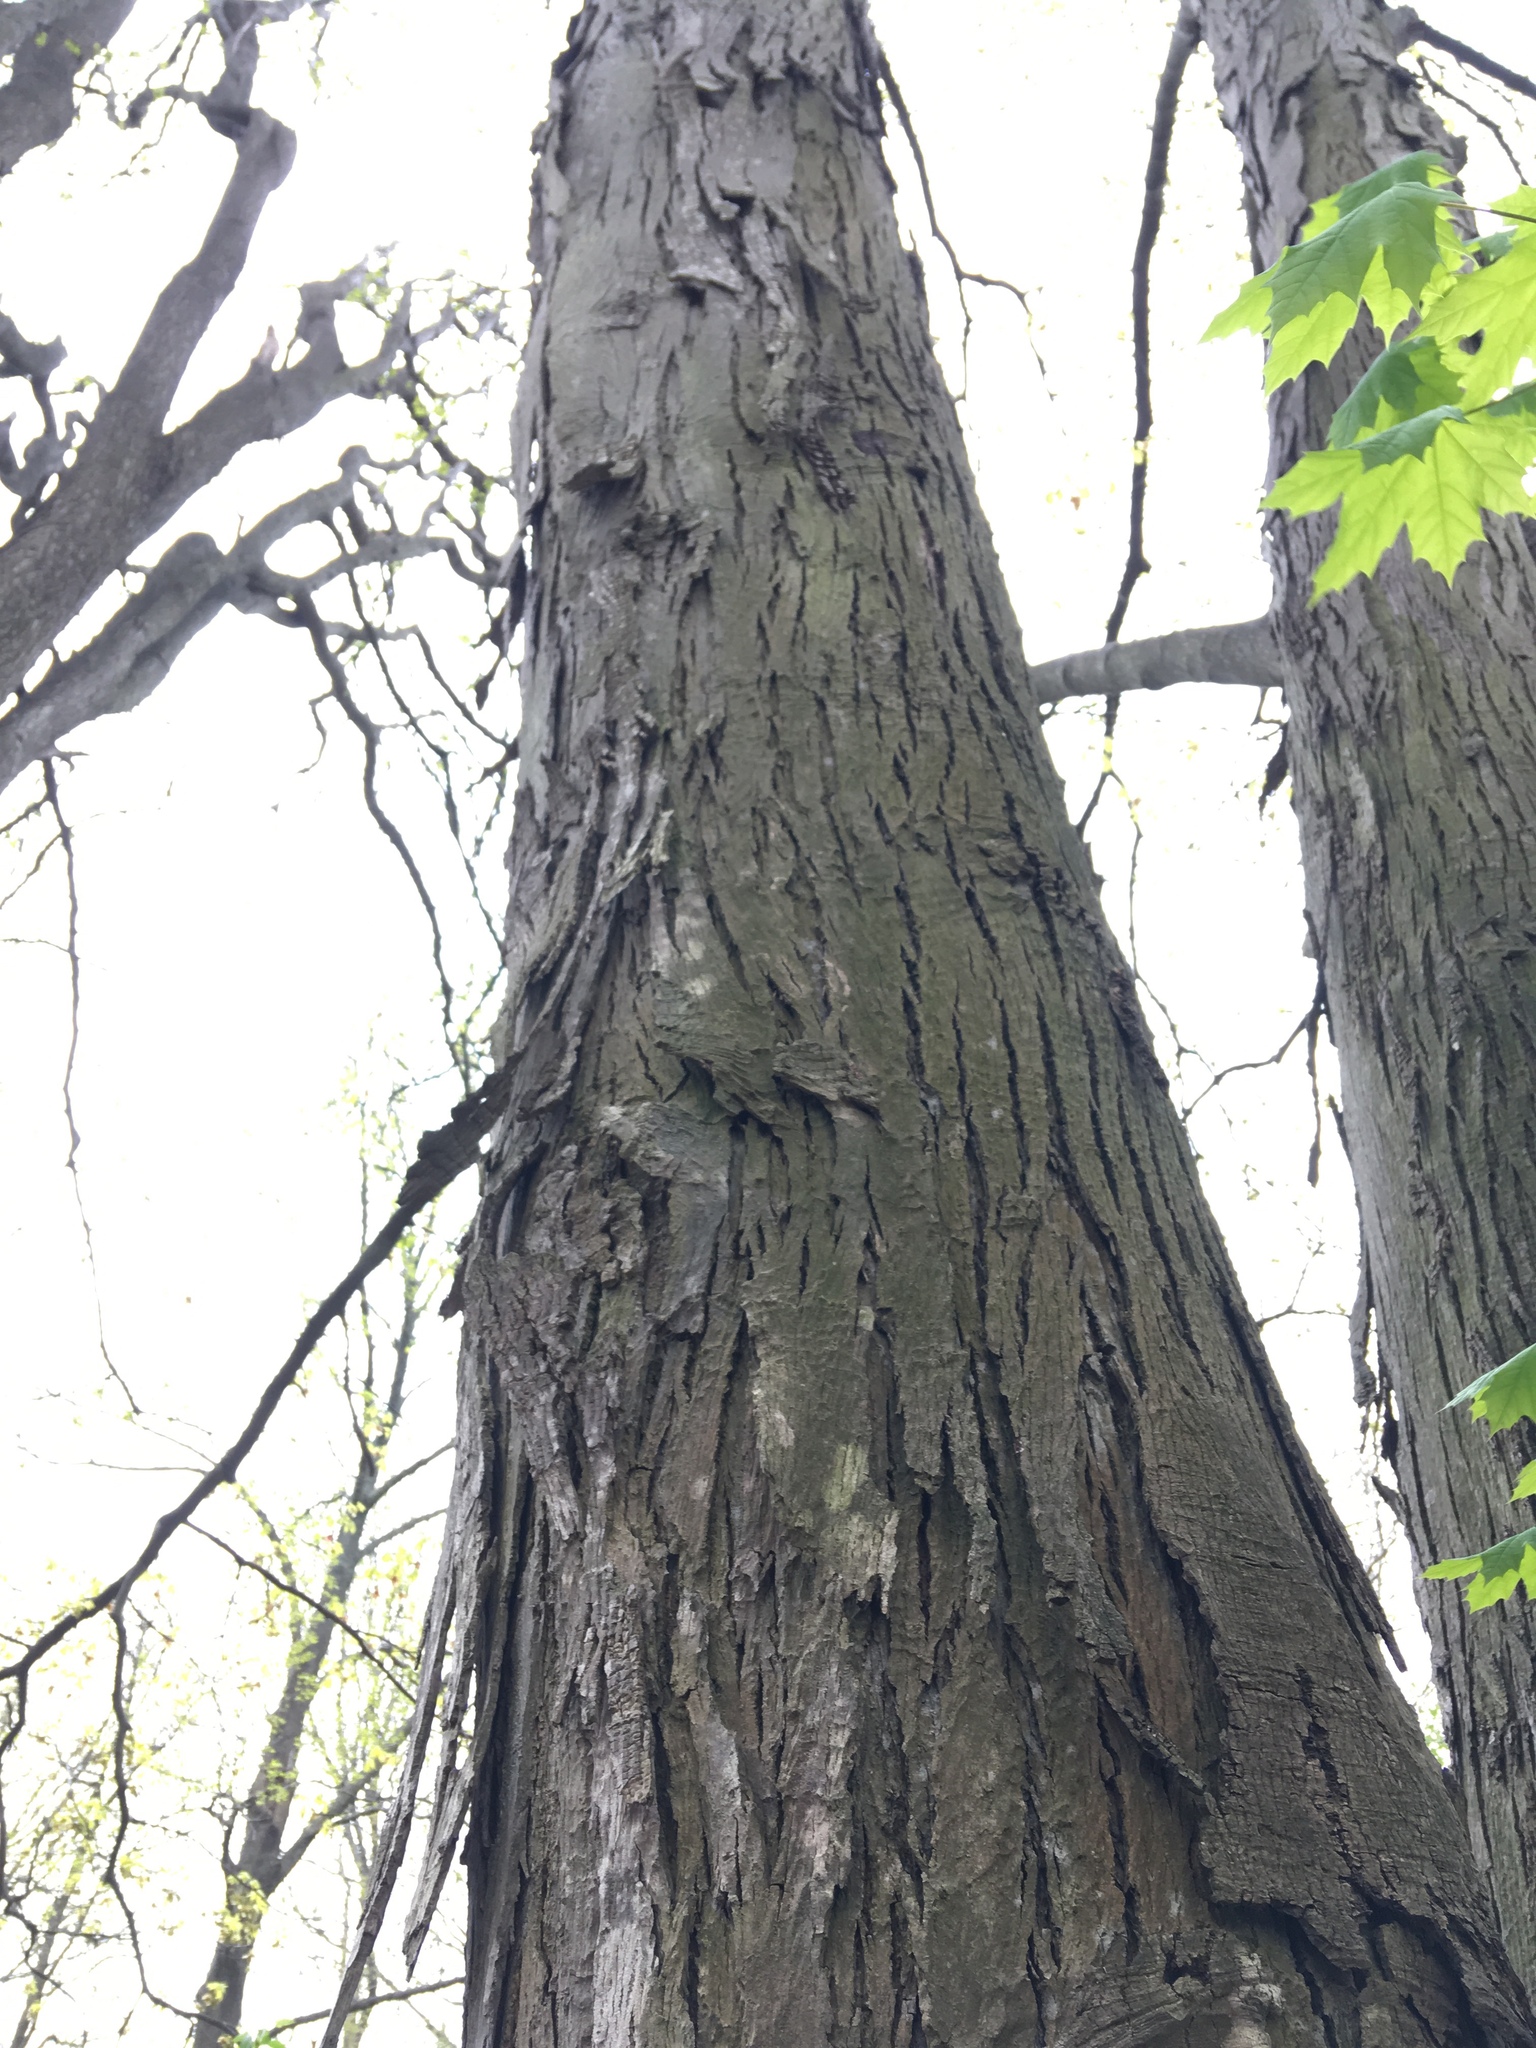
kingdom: Plantae
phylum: Tracheophyta
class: Magnoliopsida
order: Fagales
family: Juglandaceae
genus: Carya
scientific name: Carya ovata
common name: Shagbark hickory
